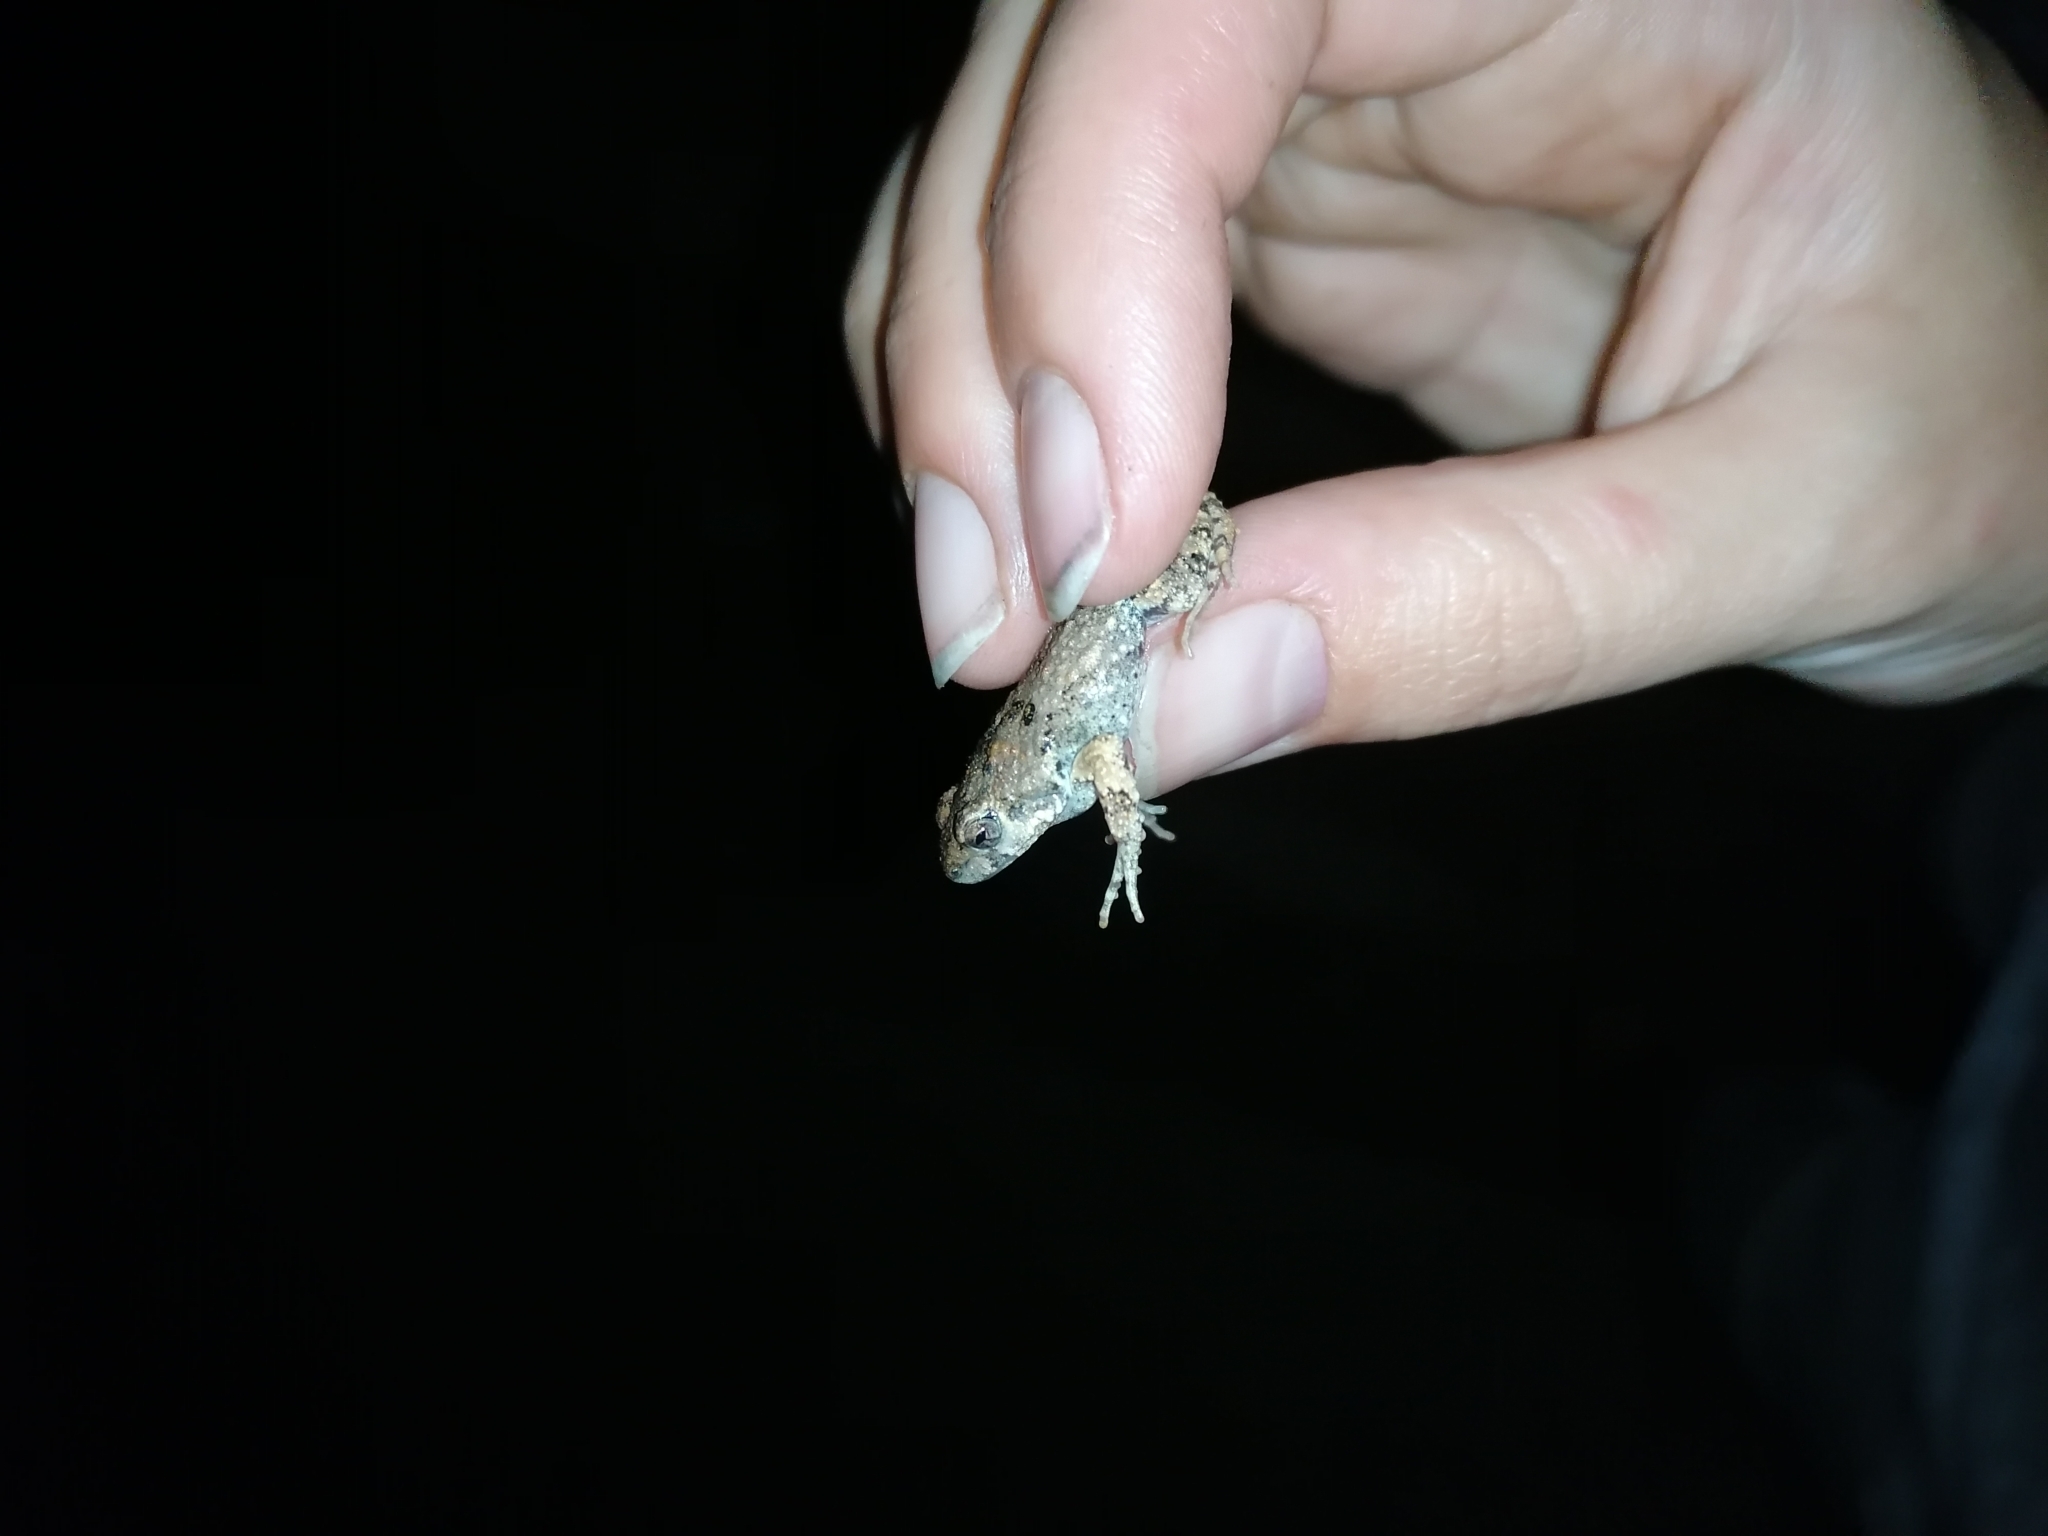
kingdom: Animalia
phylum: Chordata
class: Amphibia
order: Anura
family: Leptodactylidae
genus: Engystomops
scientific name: Engystomops pustulosus
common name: Tungara frog
